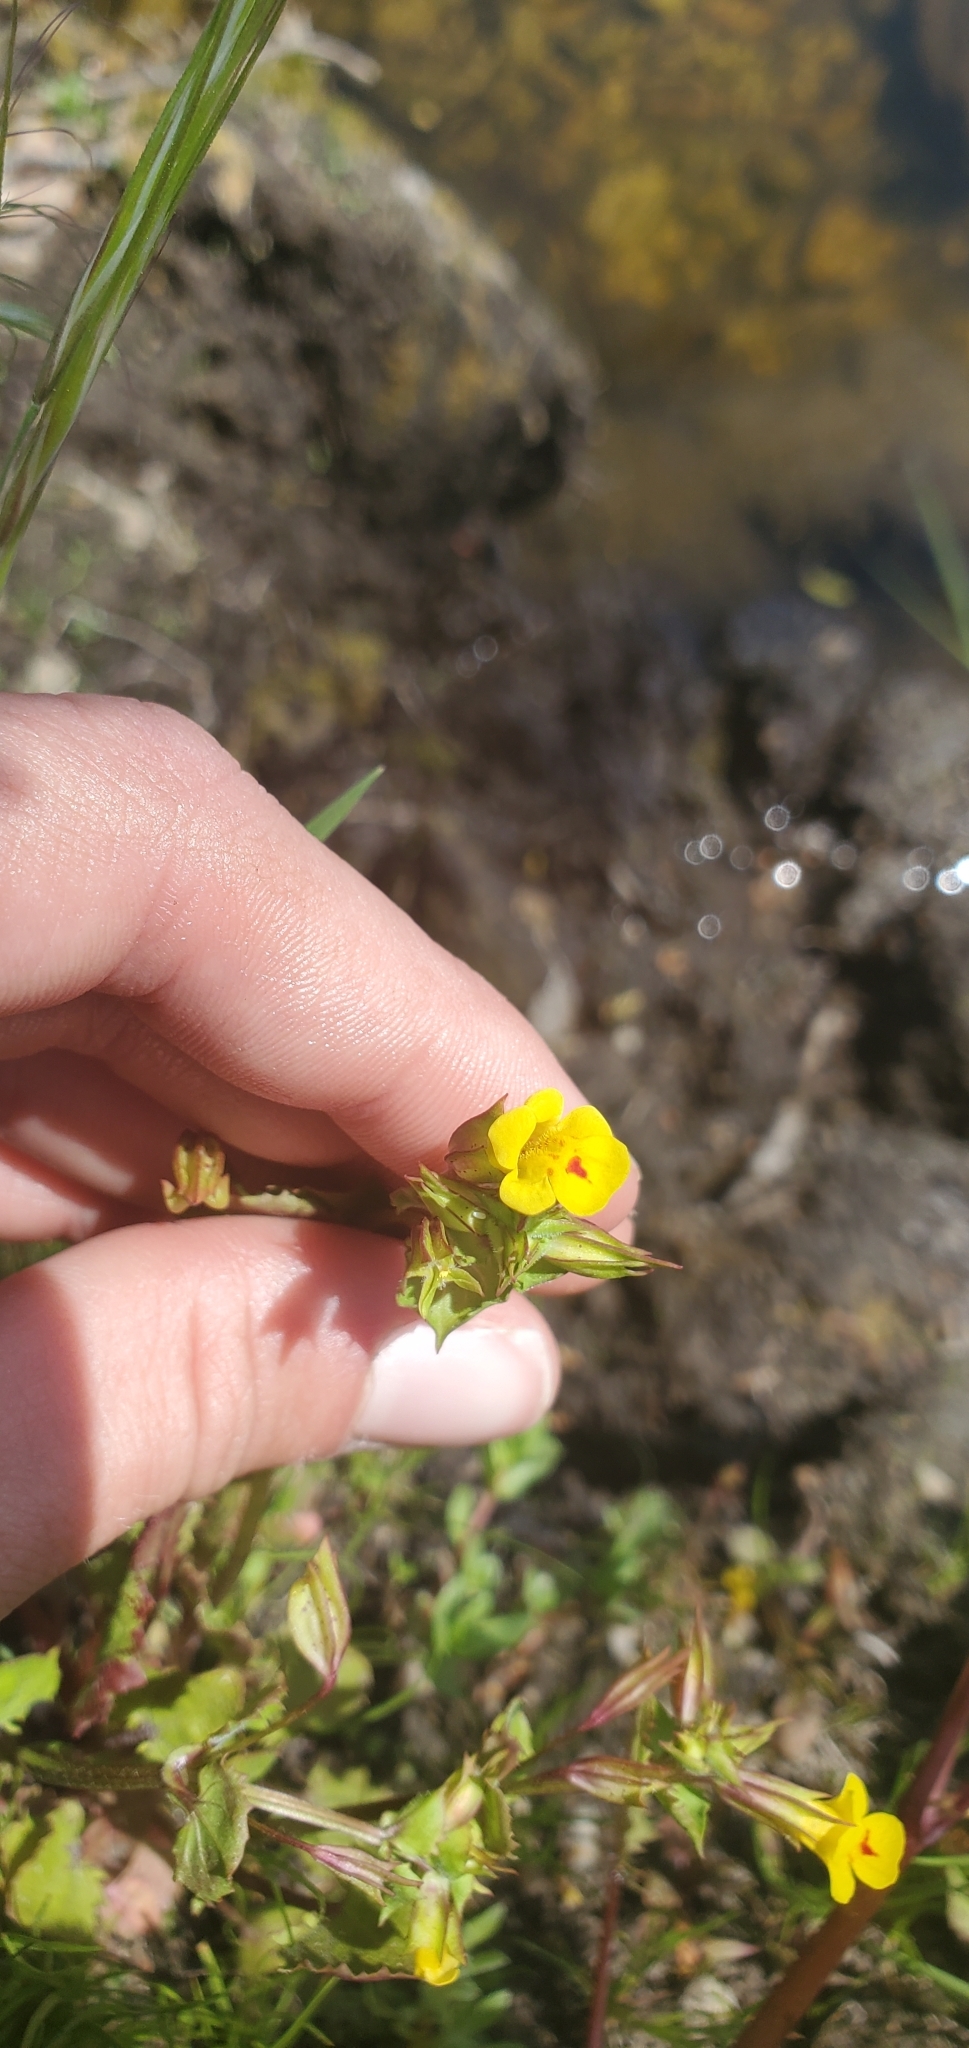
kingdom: Plantae
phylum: Tracheophyta
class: Magnoliopsida
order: Lamiales
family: Phrymaceae
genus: Erythranthe
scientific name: Erythranthe nasuta
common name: Sooke monkeyflower
